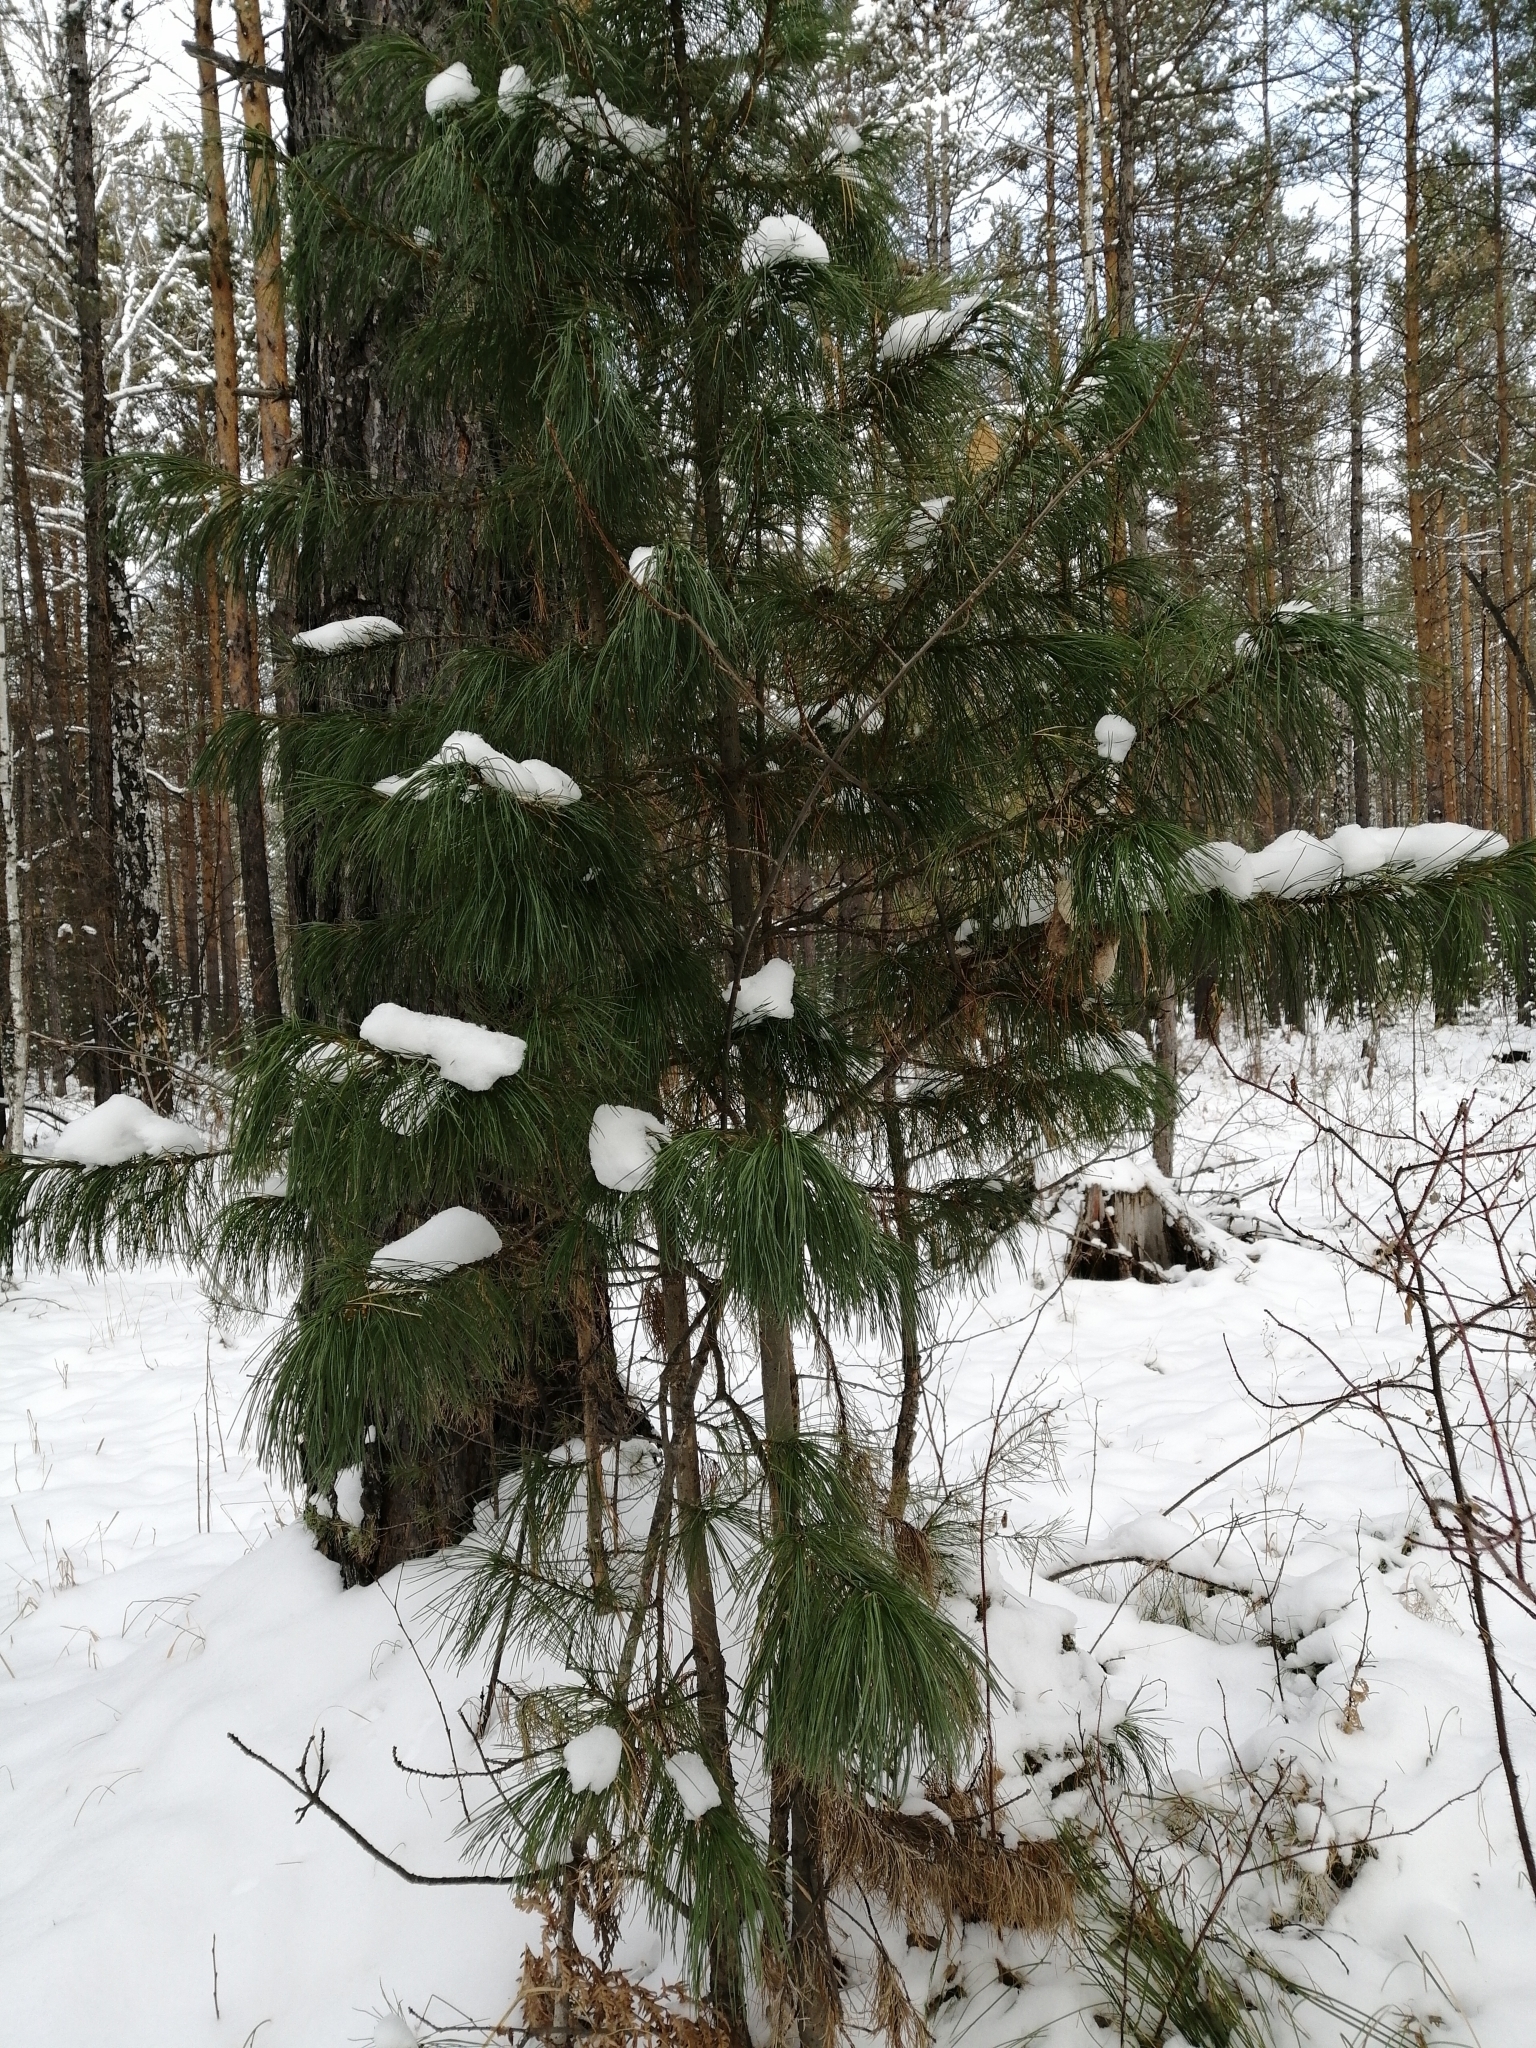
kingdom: Plantae
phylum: Tracheophyta
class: Pinopsida
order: Pinales
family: Pinaceae
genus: Pinus
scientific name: Pinus sibirica
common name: Siberian pine
